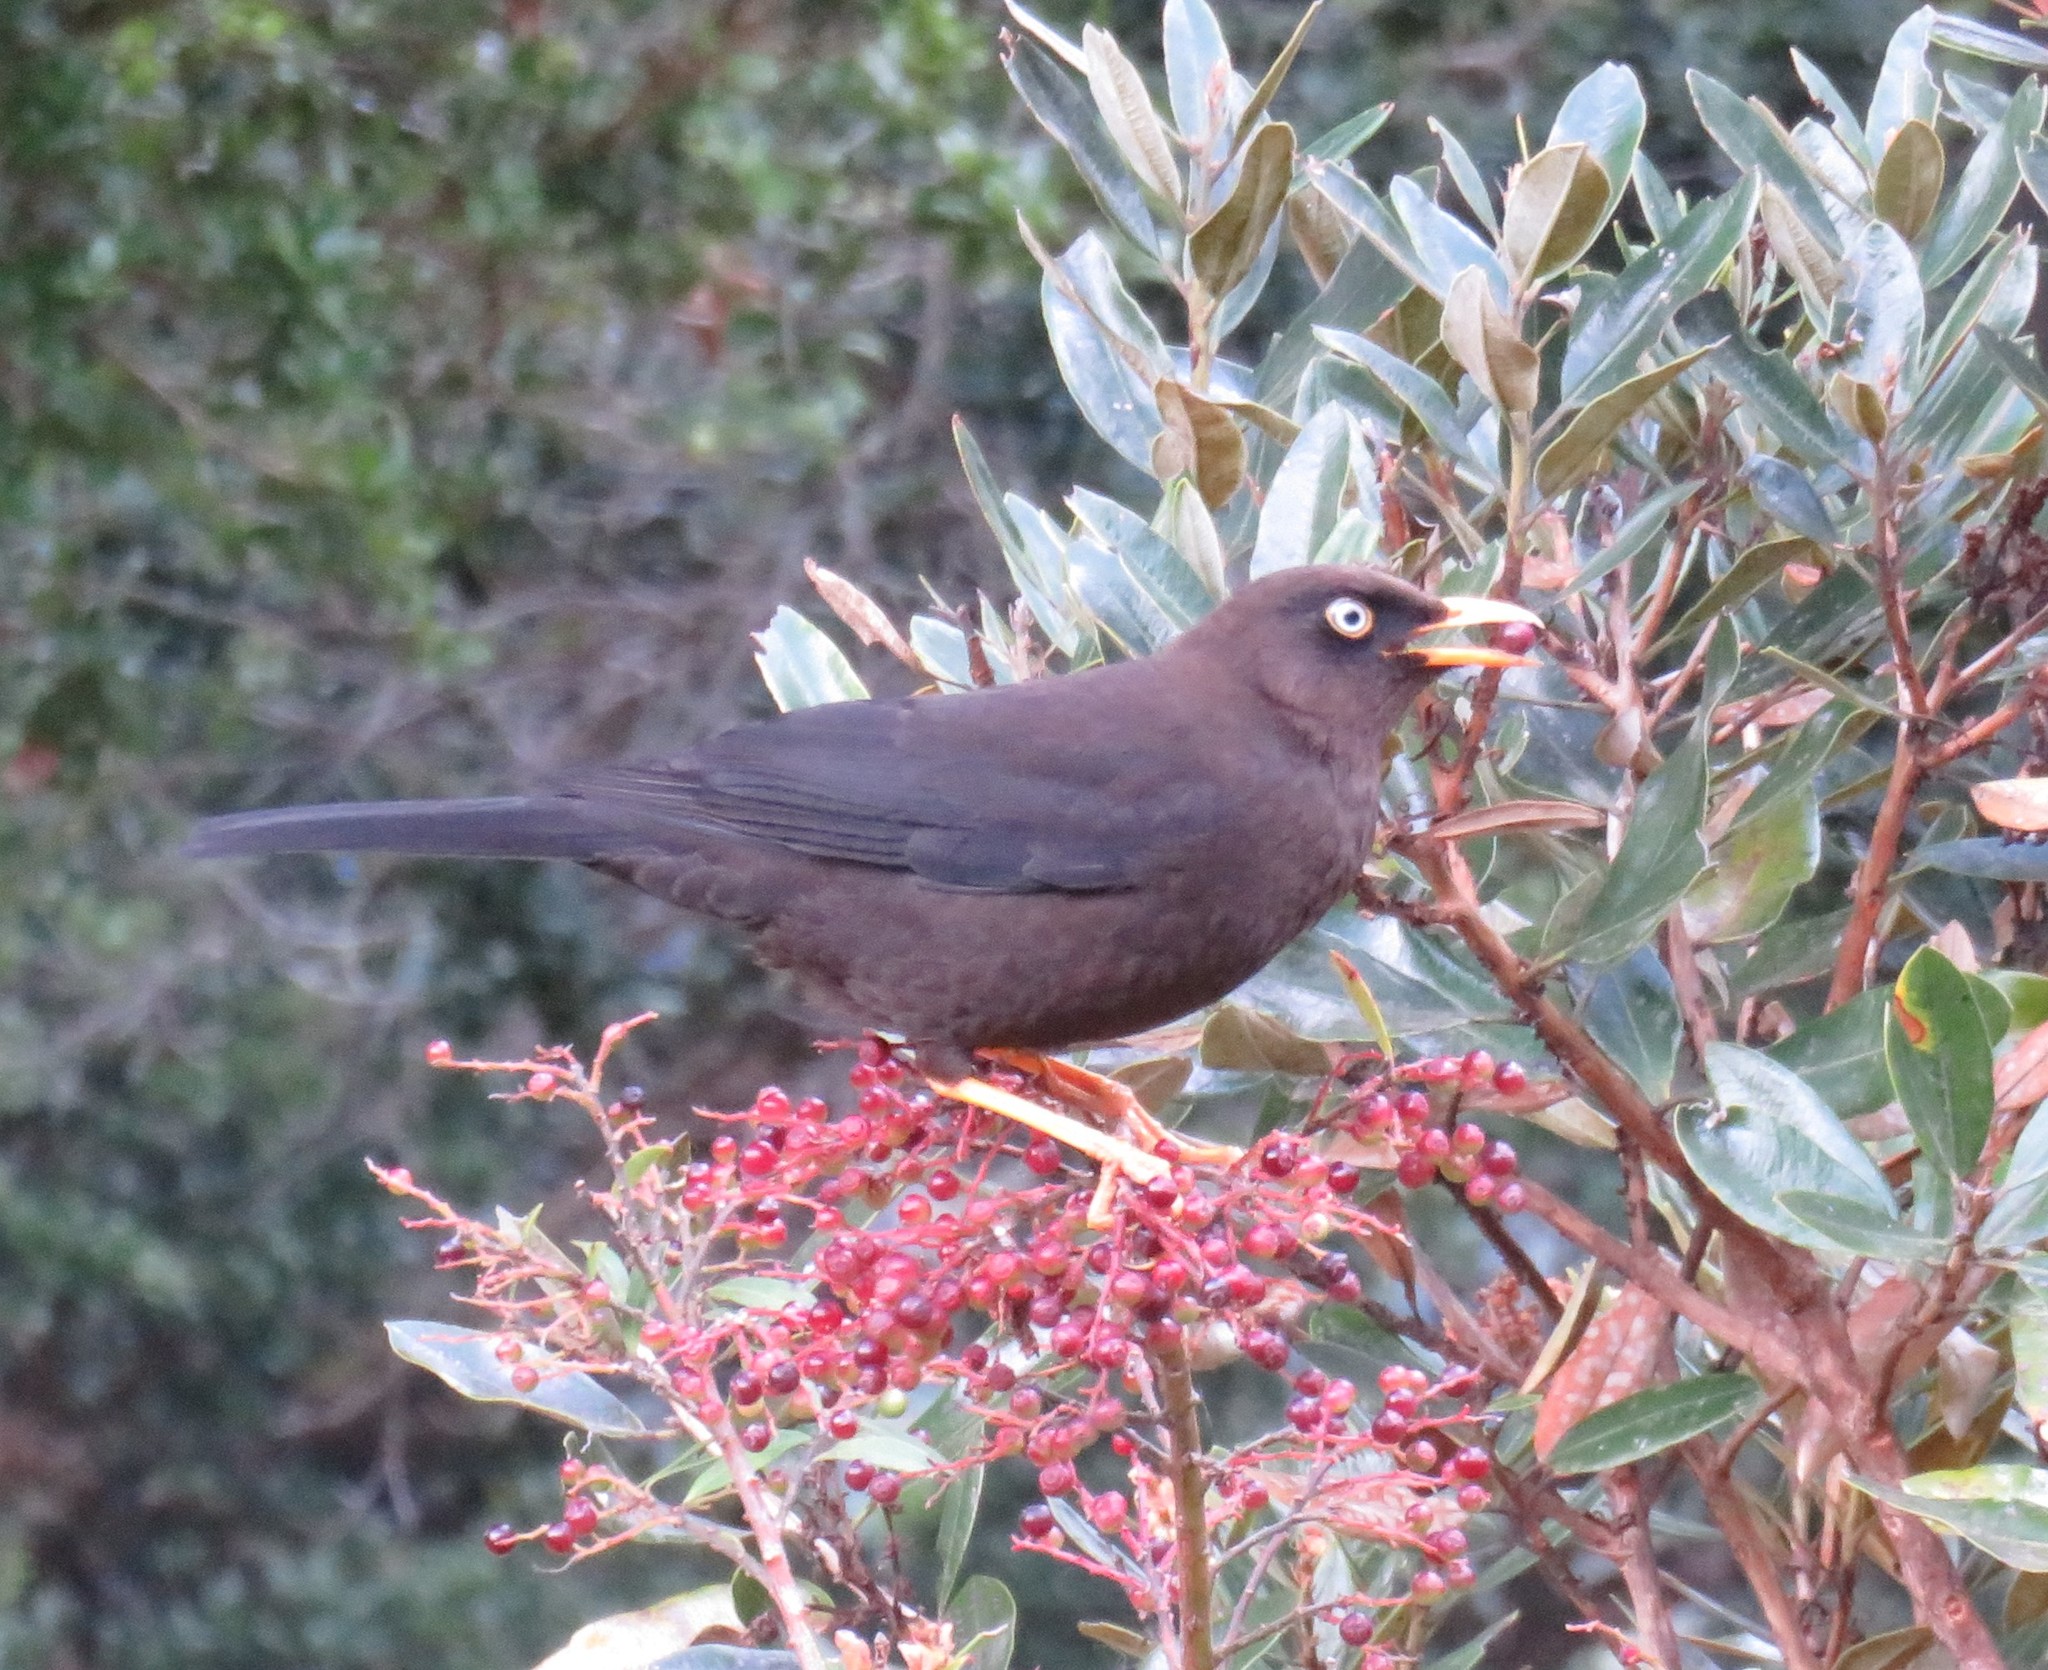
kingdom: Animalia
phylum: Chordata
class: Aves
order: Passeriformes
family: Turdidae
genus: Turdus
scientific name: Turdus nigrescens
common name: Sooty thrush
